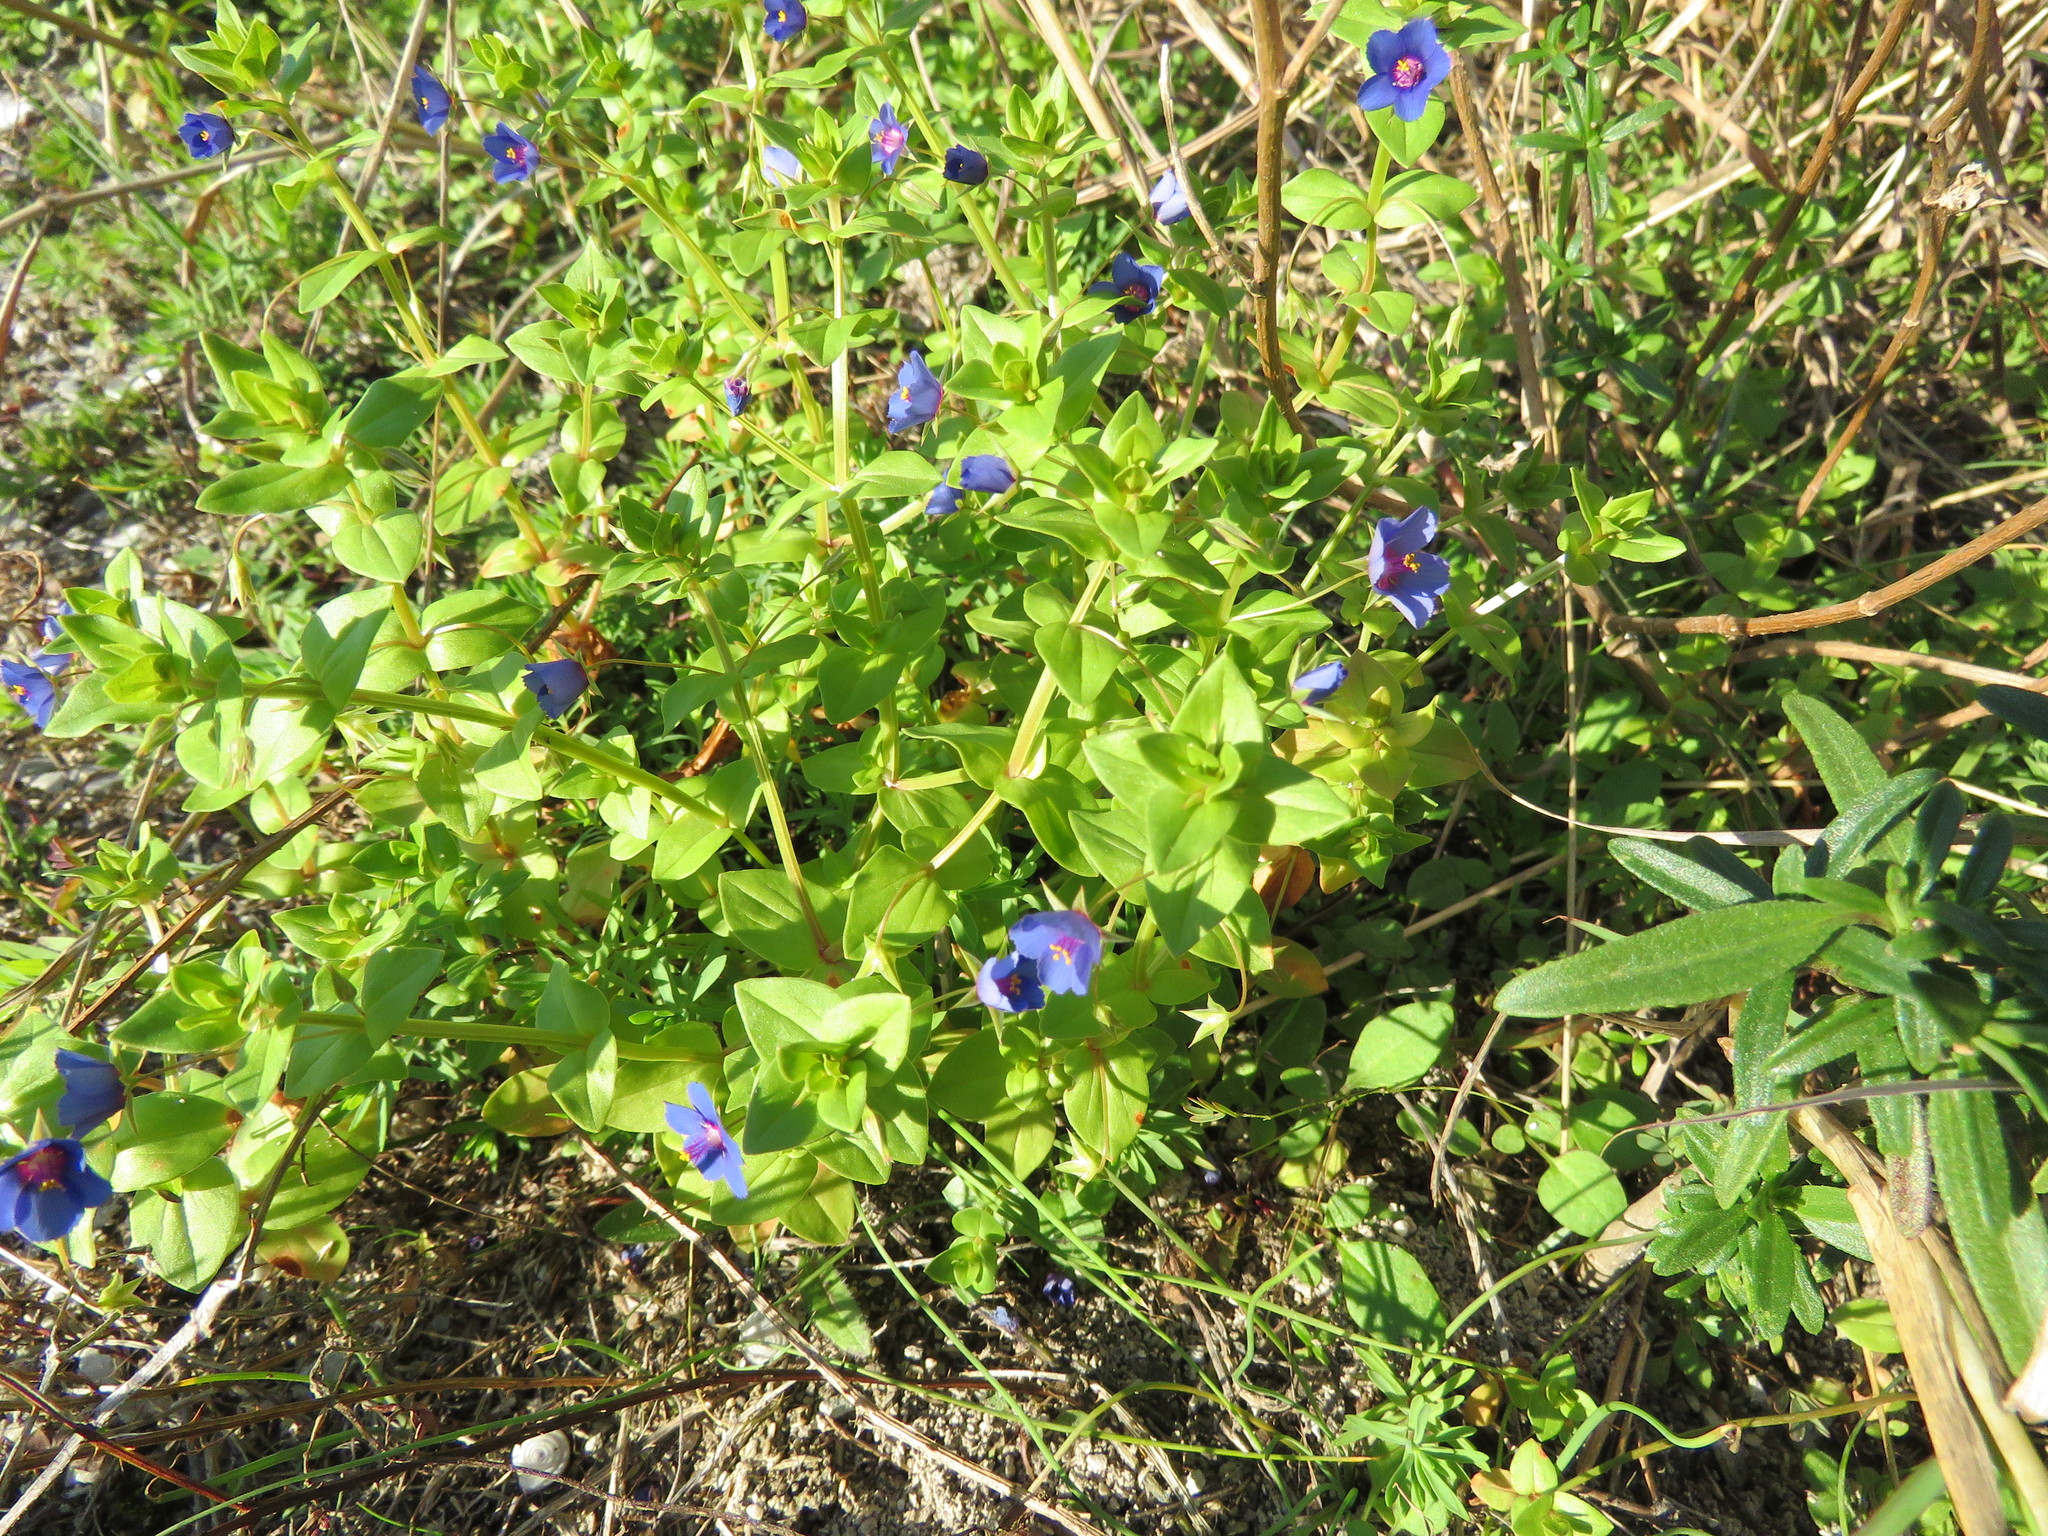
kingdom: Plantae
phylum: Tracheophyta
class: Magnoliopsida
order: Ericales
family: Primulaceae
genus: Lysimachia
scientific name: Lysimachia arvensis
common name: Scarlet pimpernel
